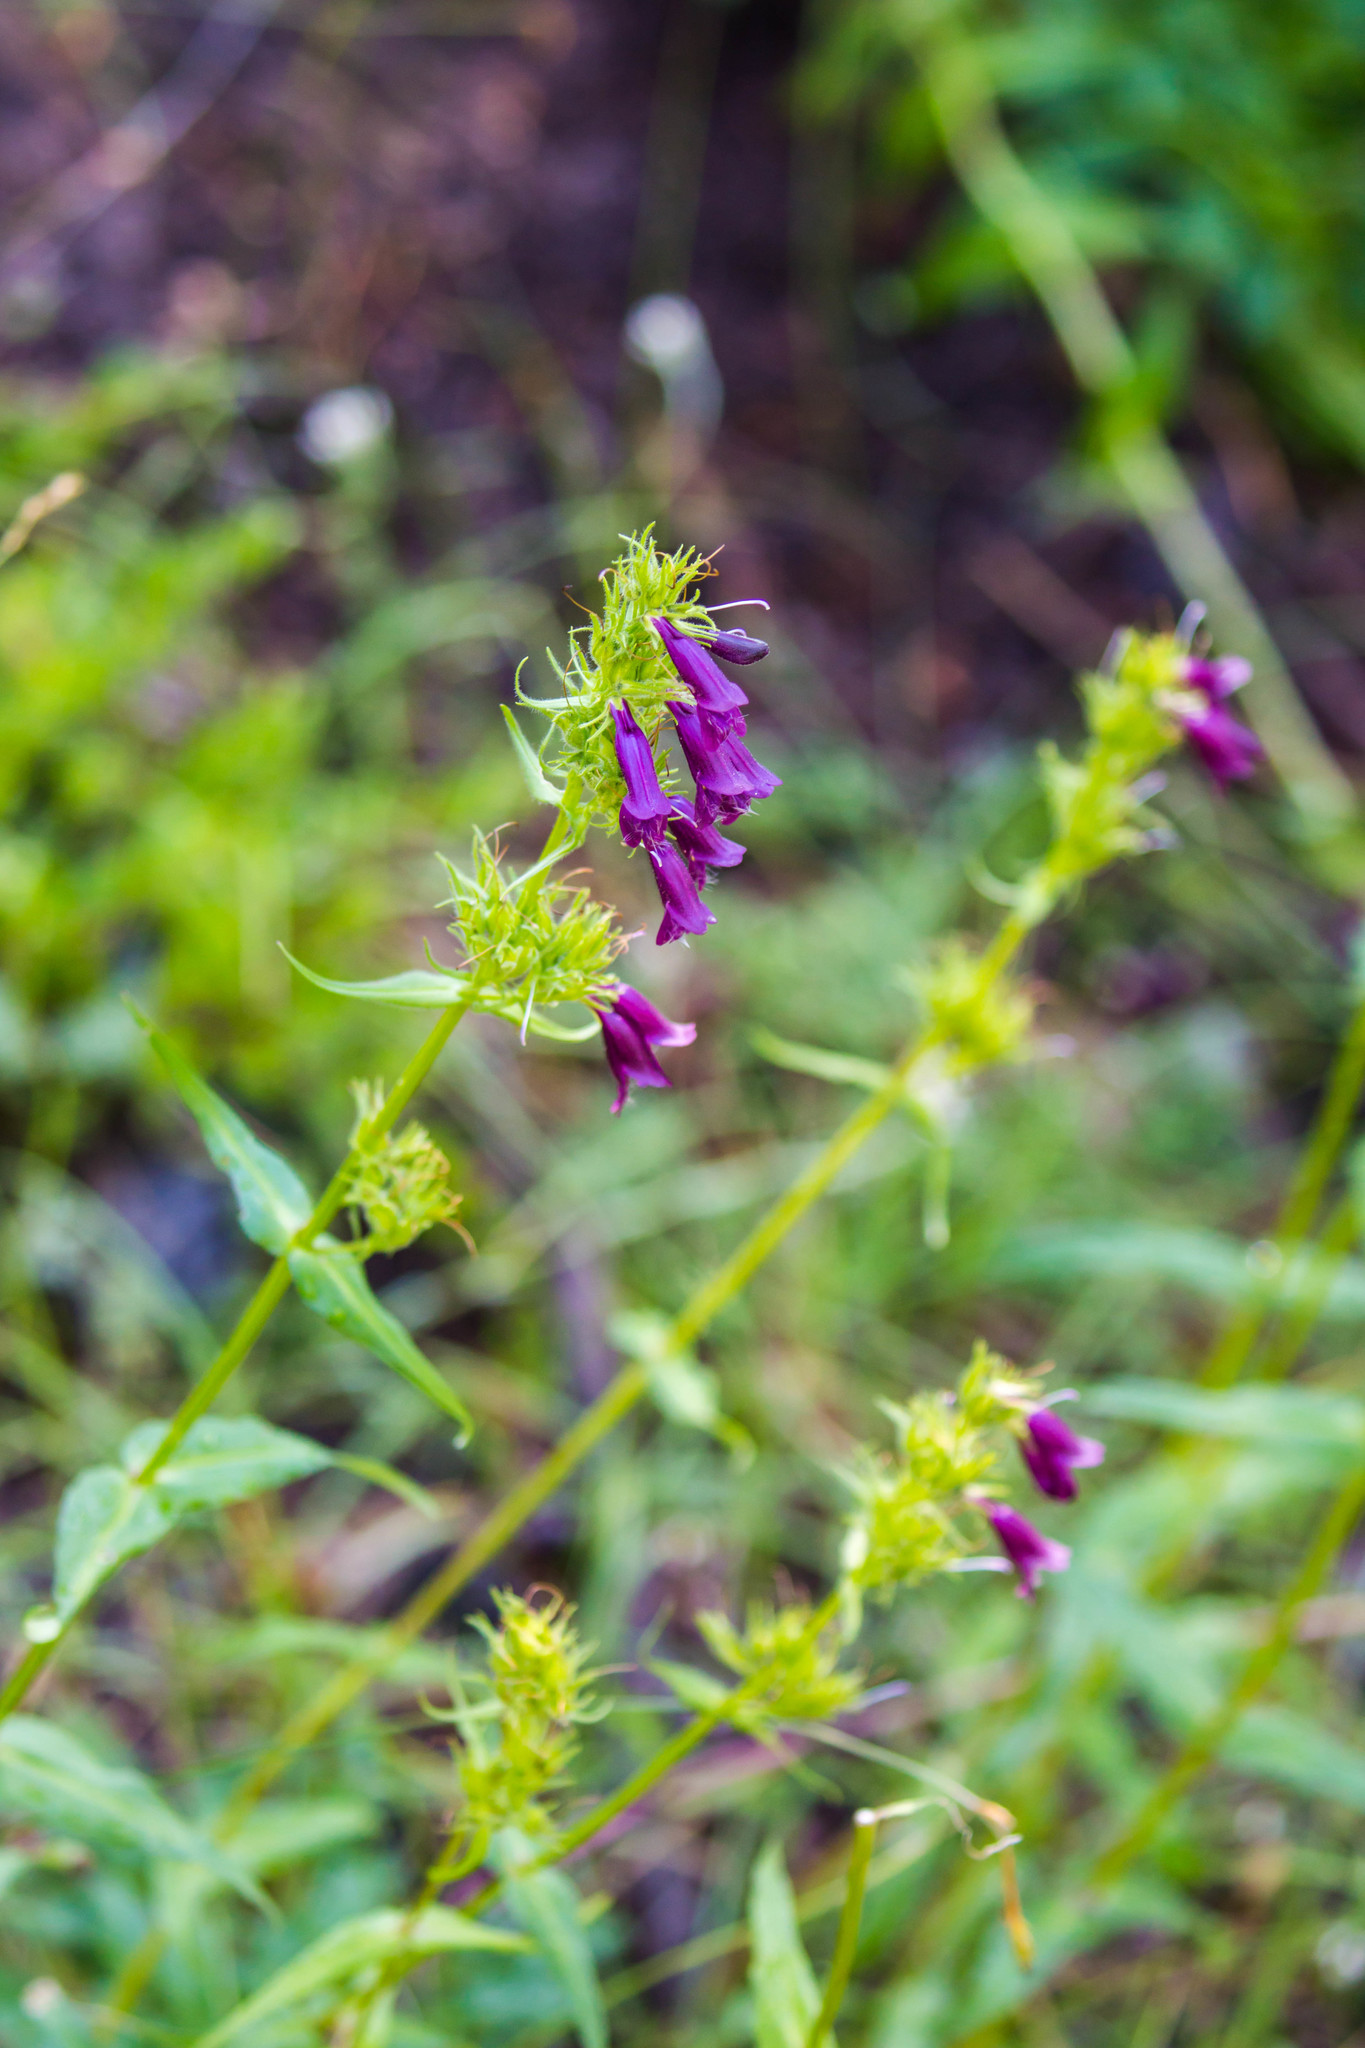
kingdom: Plantae
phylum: Tracheophyta
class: Magnoliopsida
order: Lamiales
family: Plantaginaceae
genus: Penstemon
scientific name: Penstemon whippleanus
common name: Whipple's penstemon
